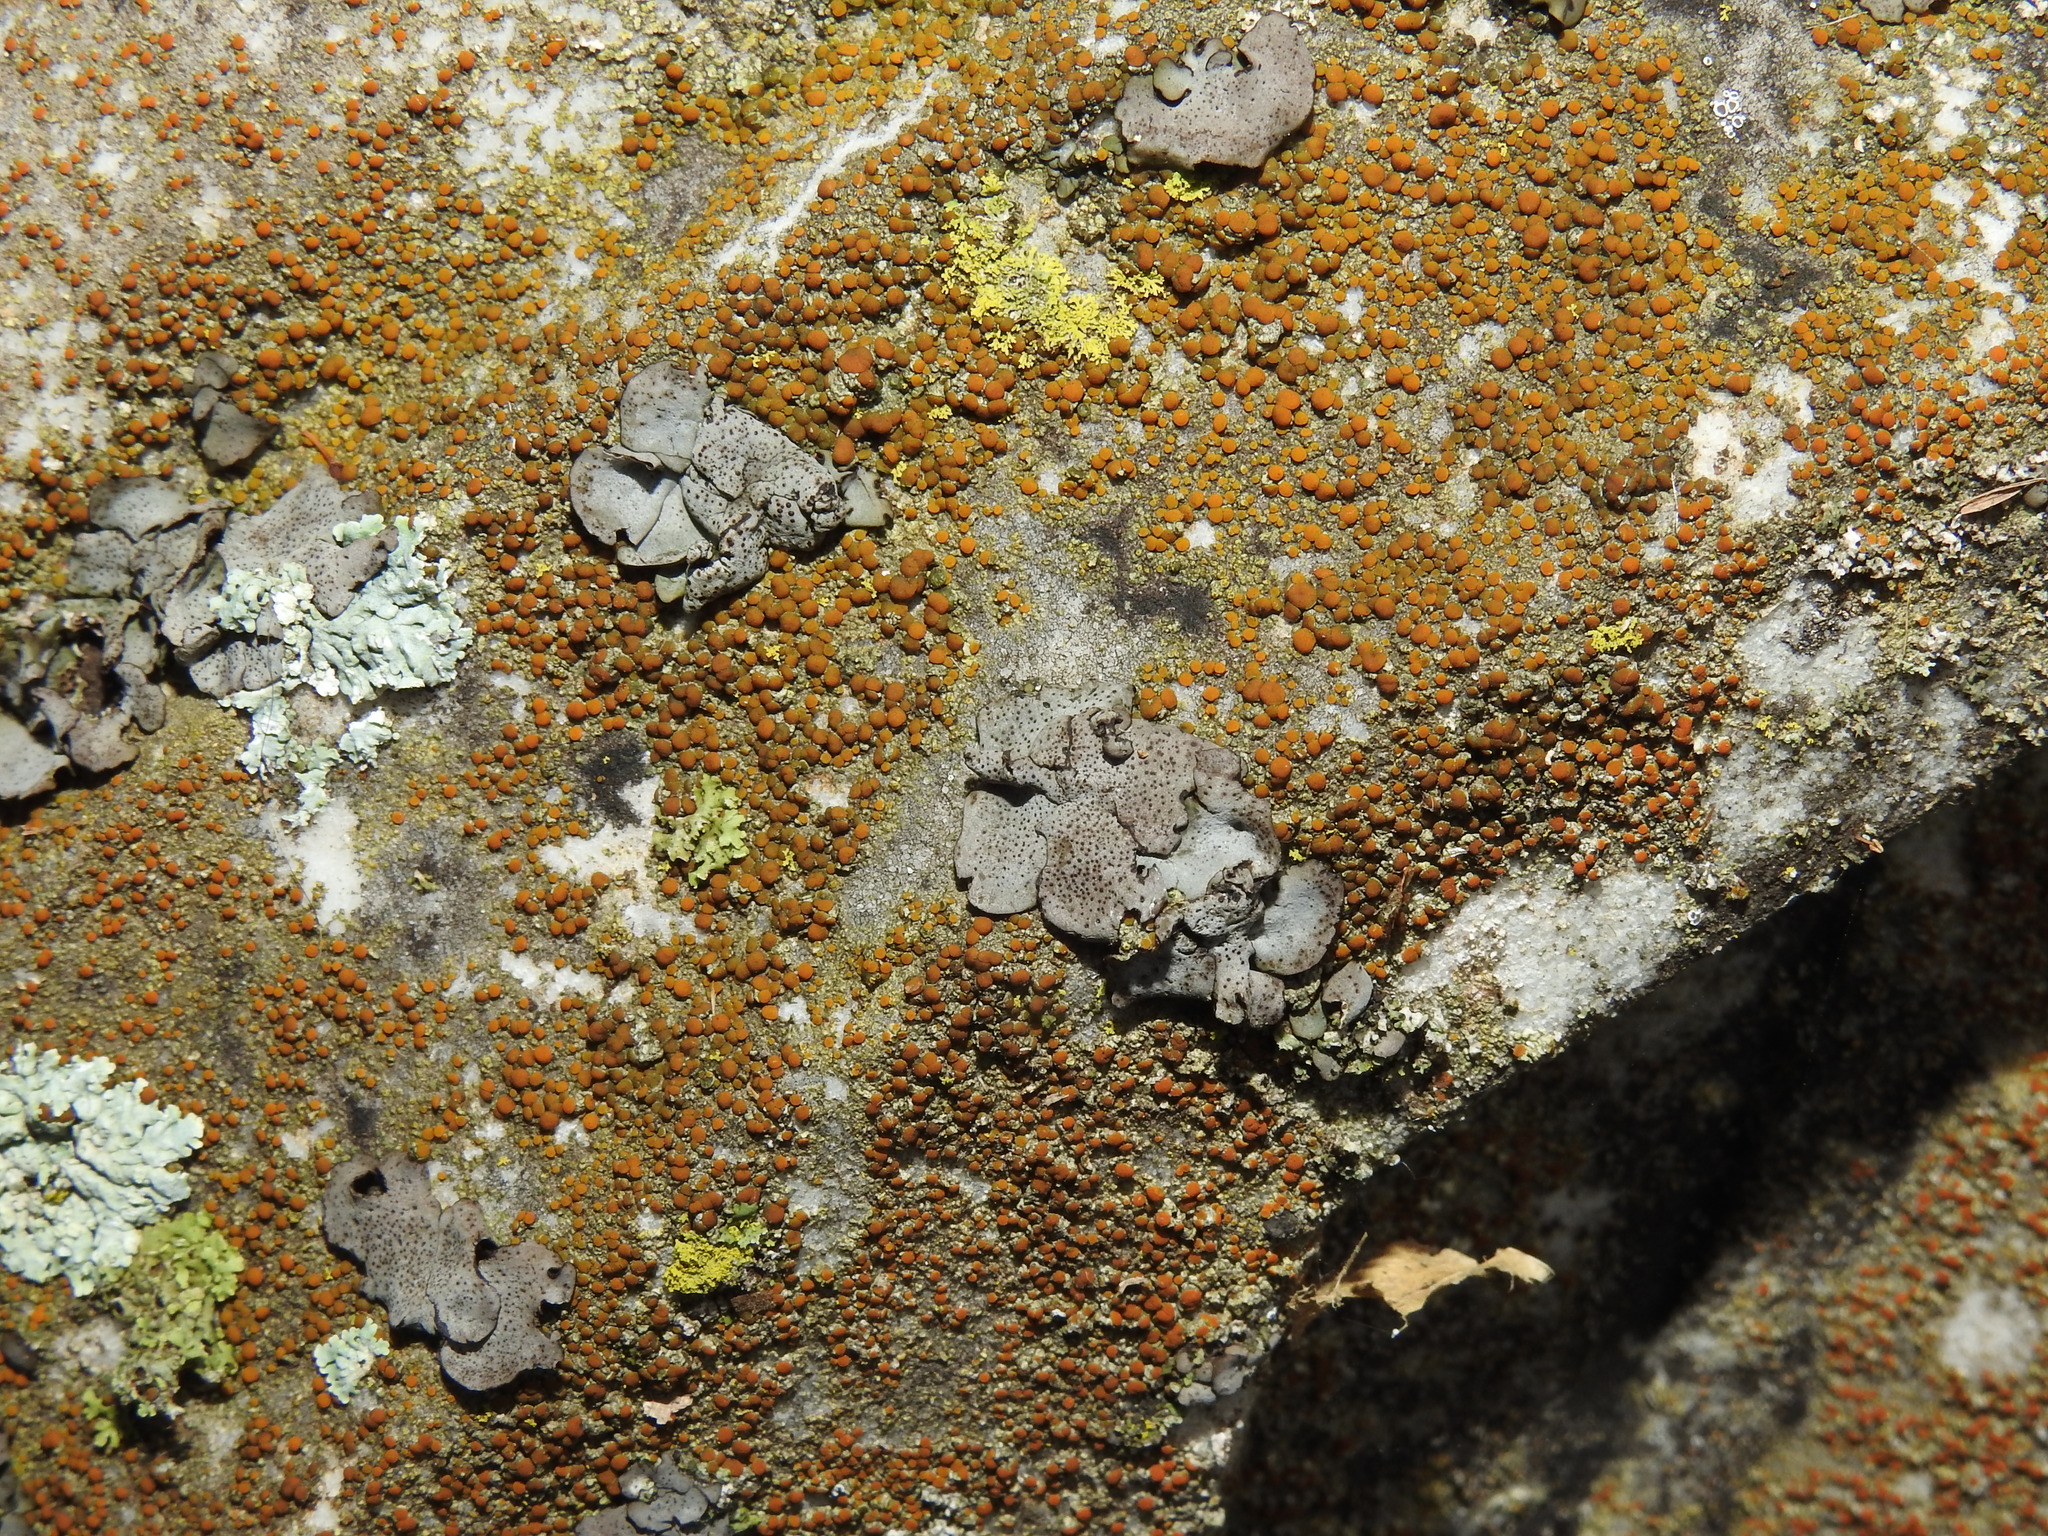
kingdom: Fungi
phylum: Ascomycota
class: Eurotiomycetes
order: Verrucariales
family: Verrucariaceae
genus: Dermatocarpon
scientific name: Dermatocarpon muhlenbergii
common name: Muhlenberg's stippleback lichen
